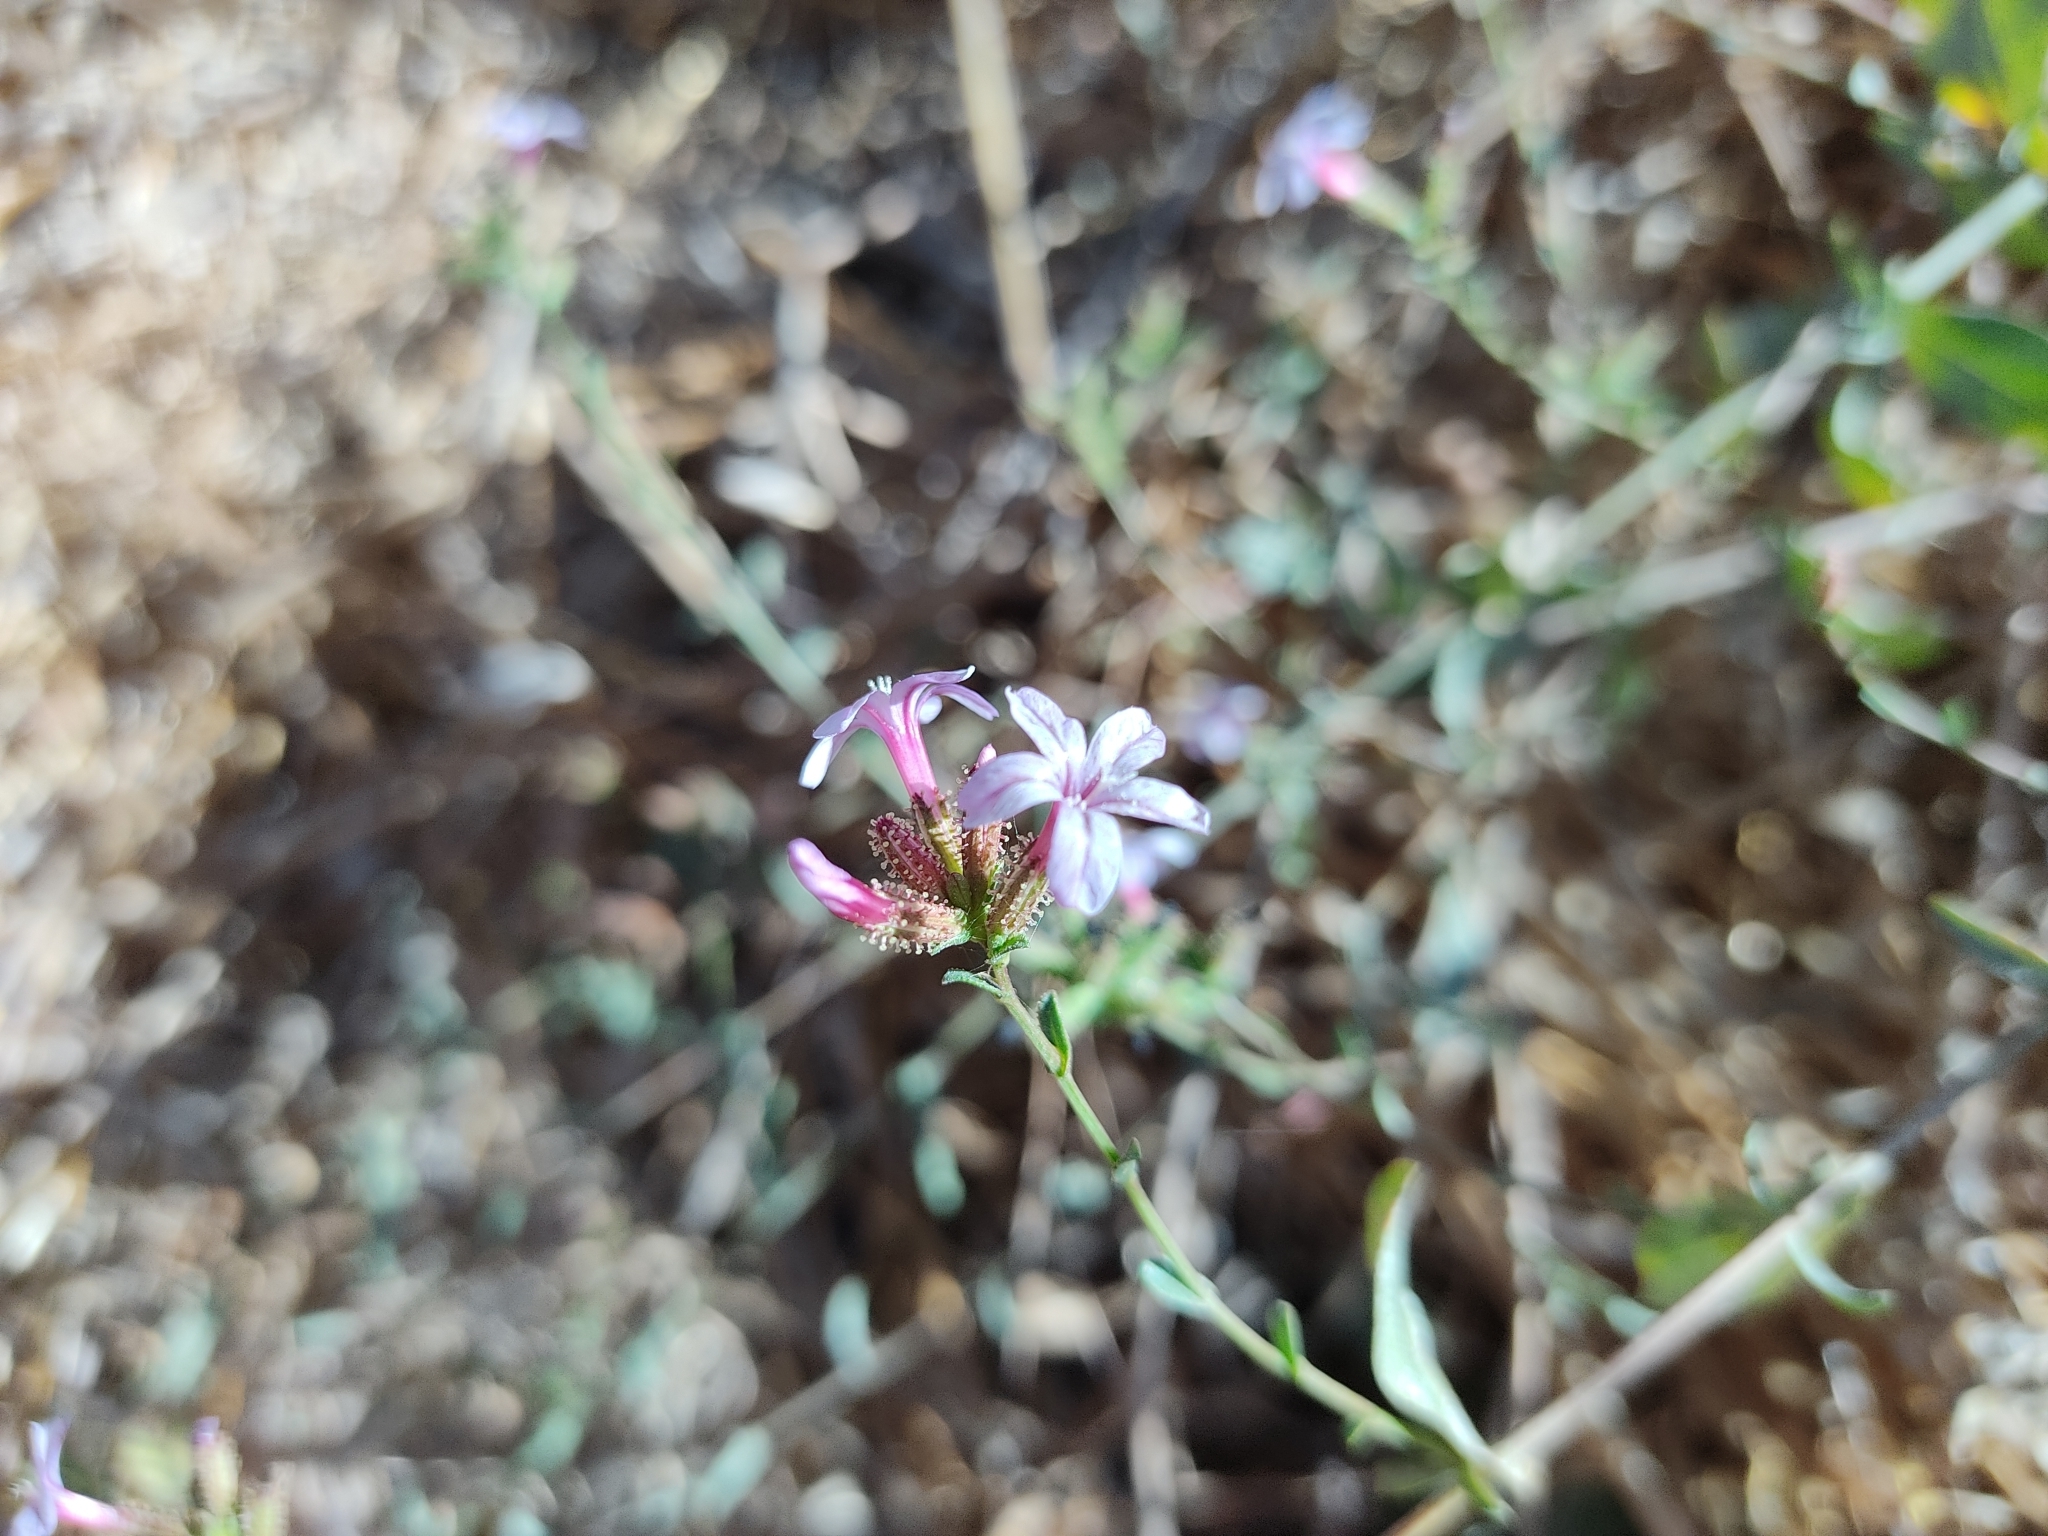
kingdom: Plantae
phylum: Tracheophyta
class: Magnoliopsida
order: Caryophyllales
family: Plumbaginaceae
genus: Plumbago
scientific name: Plumbago europaea
